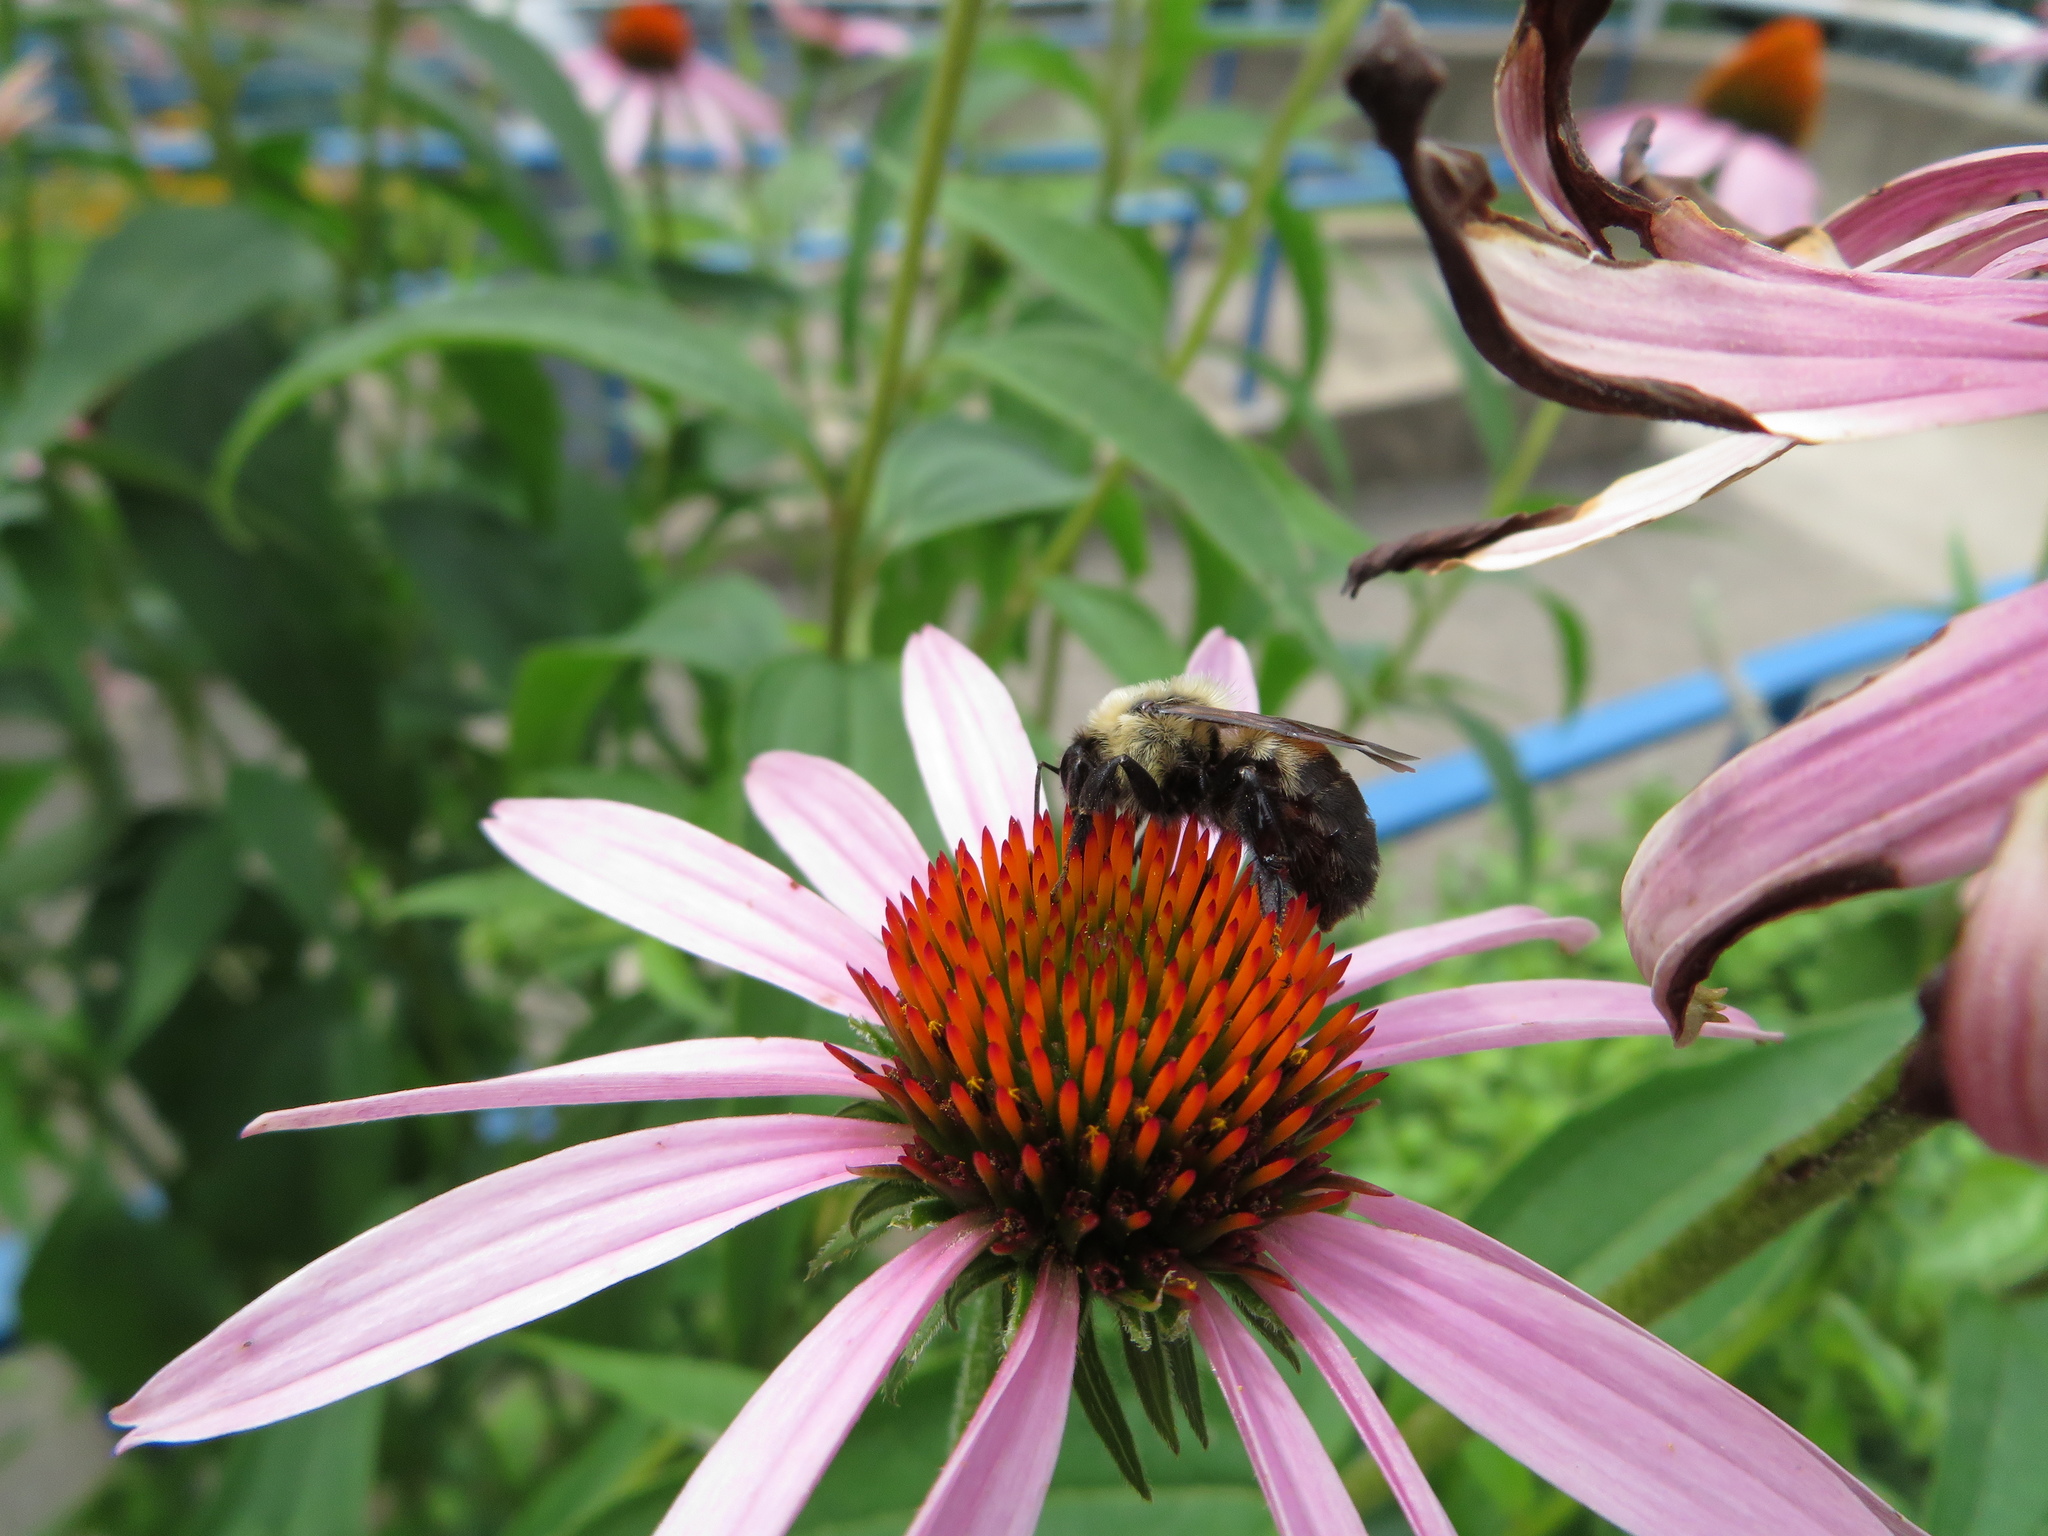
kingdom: Animalia
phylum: Arthropoda
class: Insecta
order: Hymenoptera
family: Apidae
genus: Bombus
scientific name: Bombus griseocollis
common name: Brown-belted bumble bee
